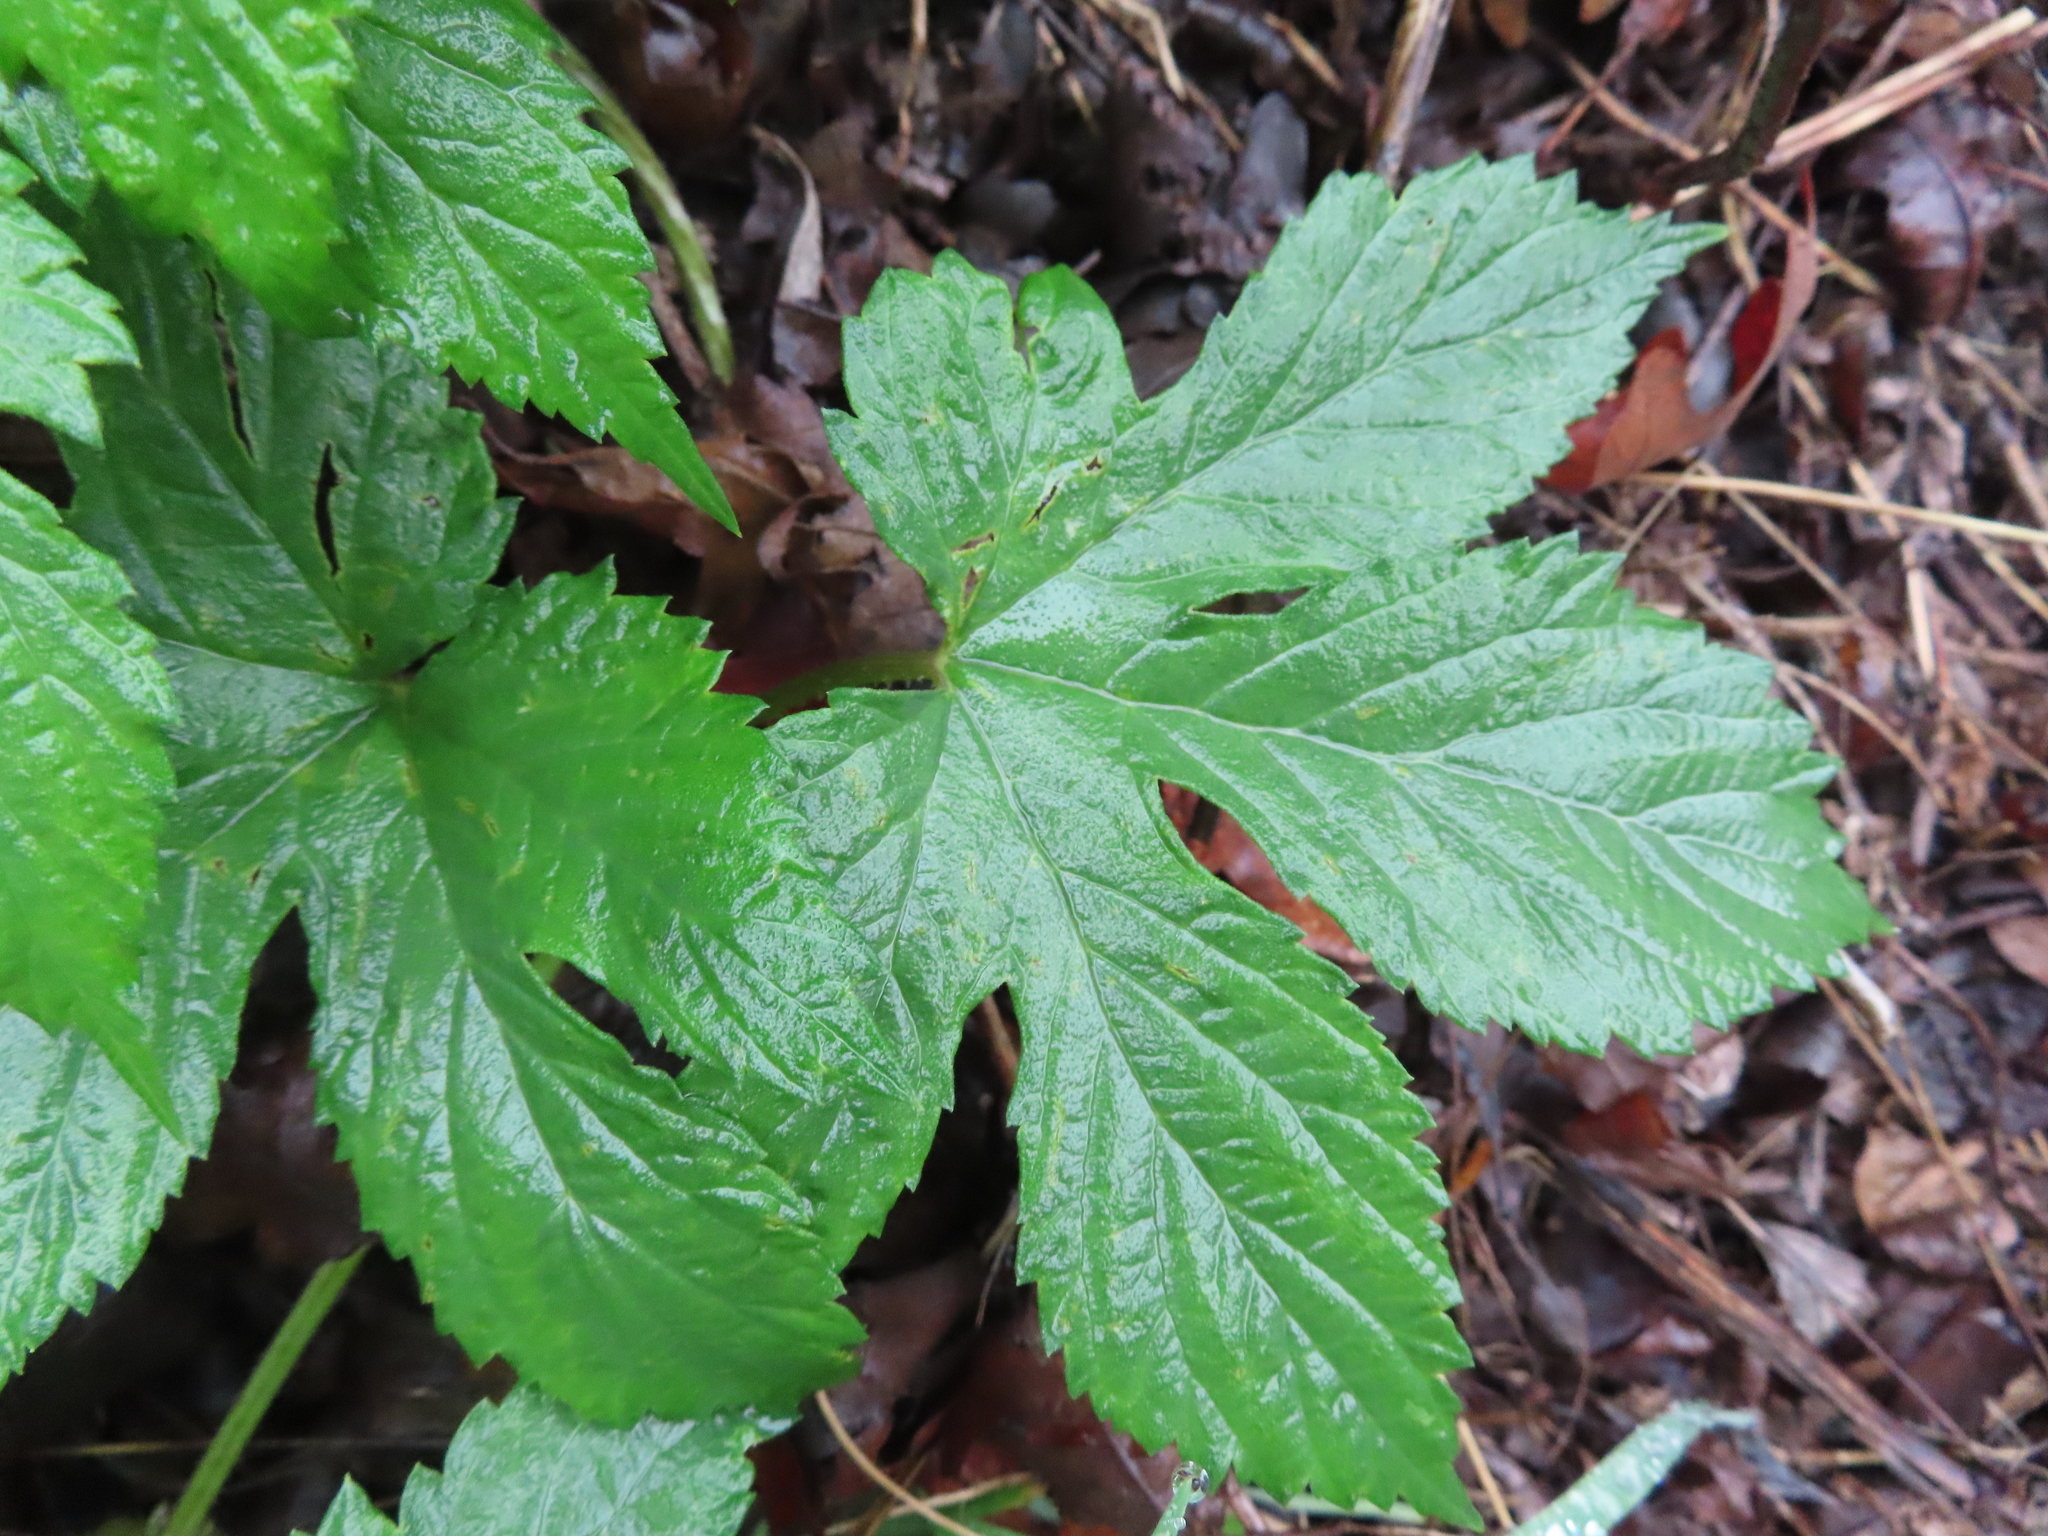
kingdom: Plantae
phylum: Tracheophyta
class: Magnoliopsida
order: Rosales
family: Cannabaceae
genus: Humulus
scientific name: Humulus lupulus
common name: Hop
